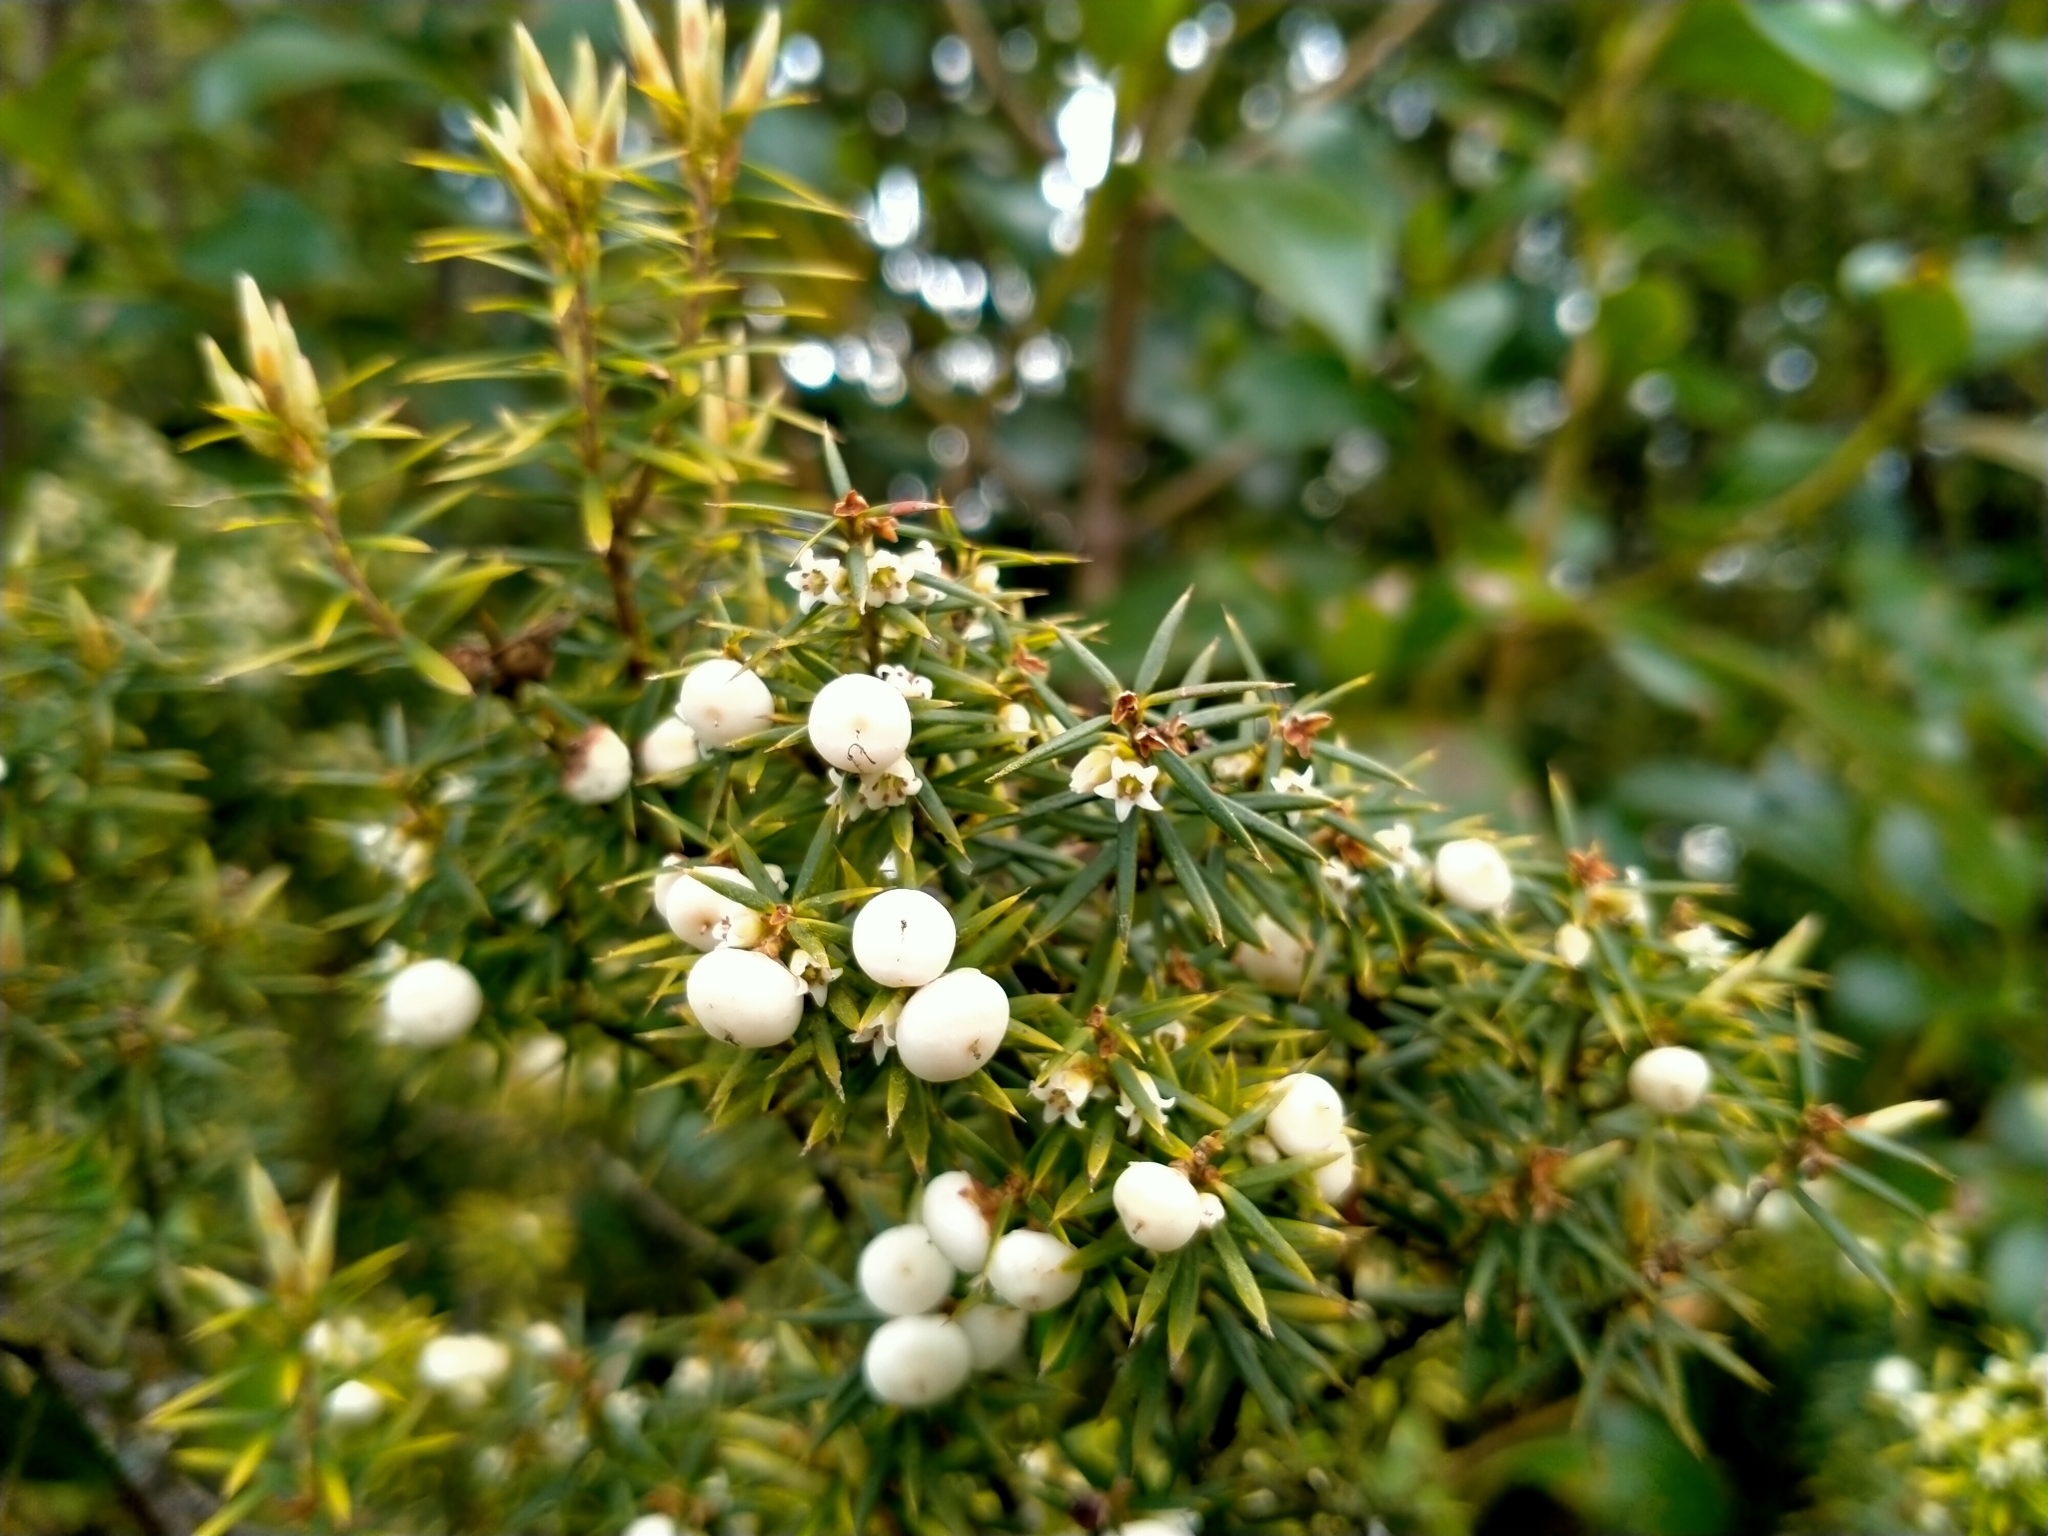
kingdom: Plantae
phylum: Tracheophyta
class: Magnoliopsida
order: Ericales
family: Ericaceae
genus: Leptecophylla
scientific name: Leptecophylla juniperina
